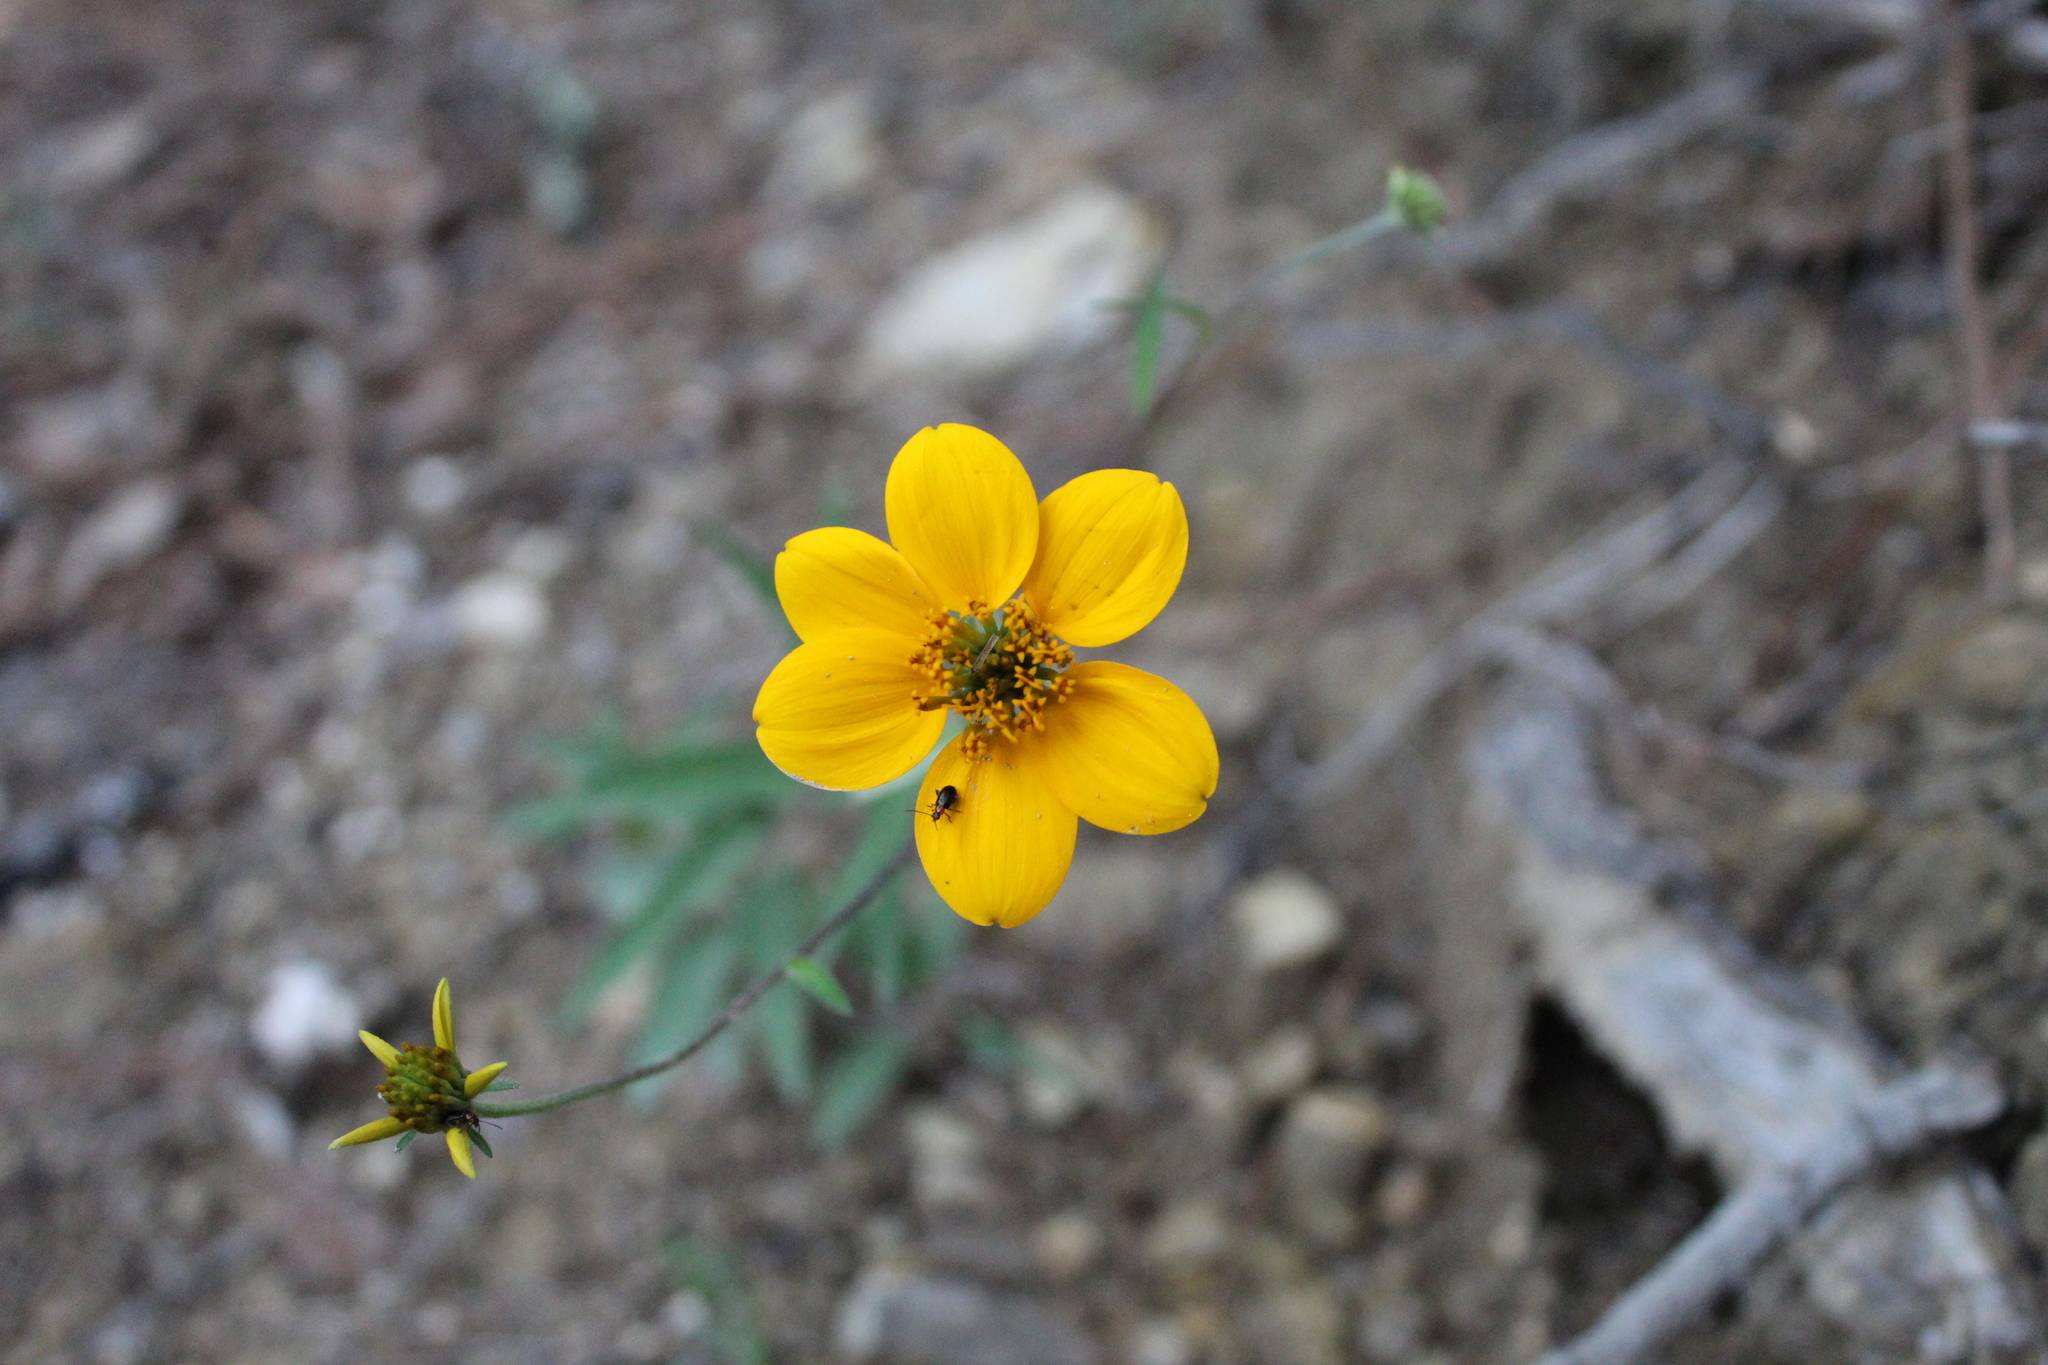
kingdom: Plantae
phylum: Tracheophyta
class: Magnoliopsida
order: Asterales
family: Asteraceae
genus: Sclerocarpus
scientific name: Sclerocarpus uniserialis
